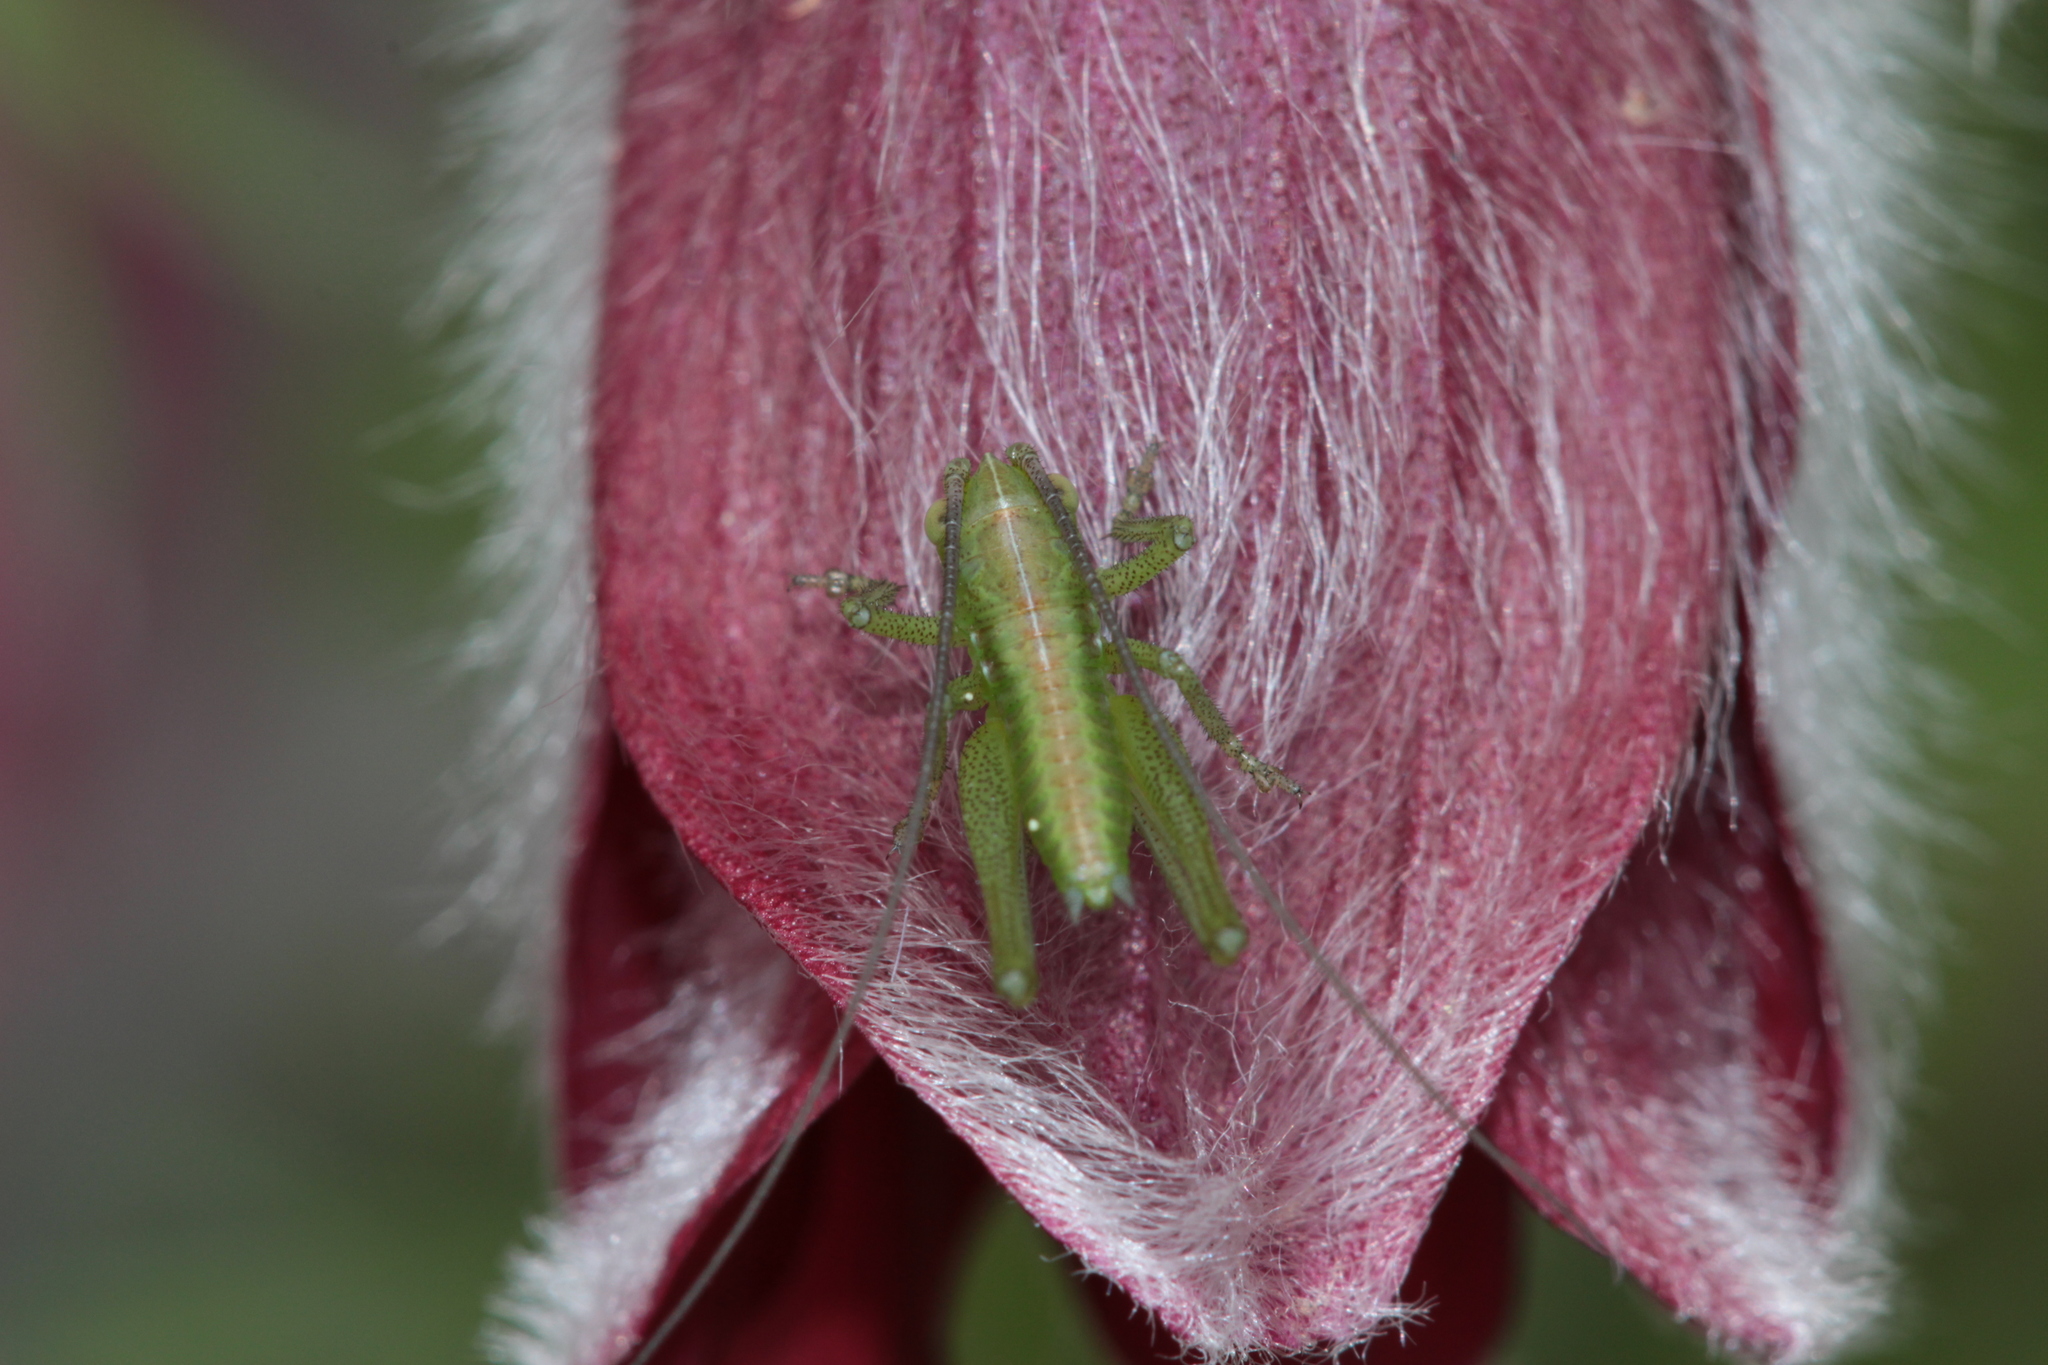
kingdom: Animalia
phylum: Arthropoda
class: Insecta
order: Orthoptera
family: Tettigoniidae
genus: Tettigonia
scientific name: Tettigonia viridissima
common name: Great green bush-cricket
